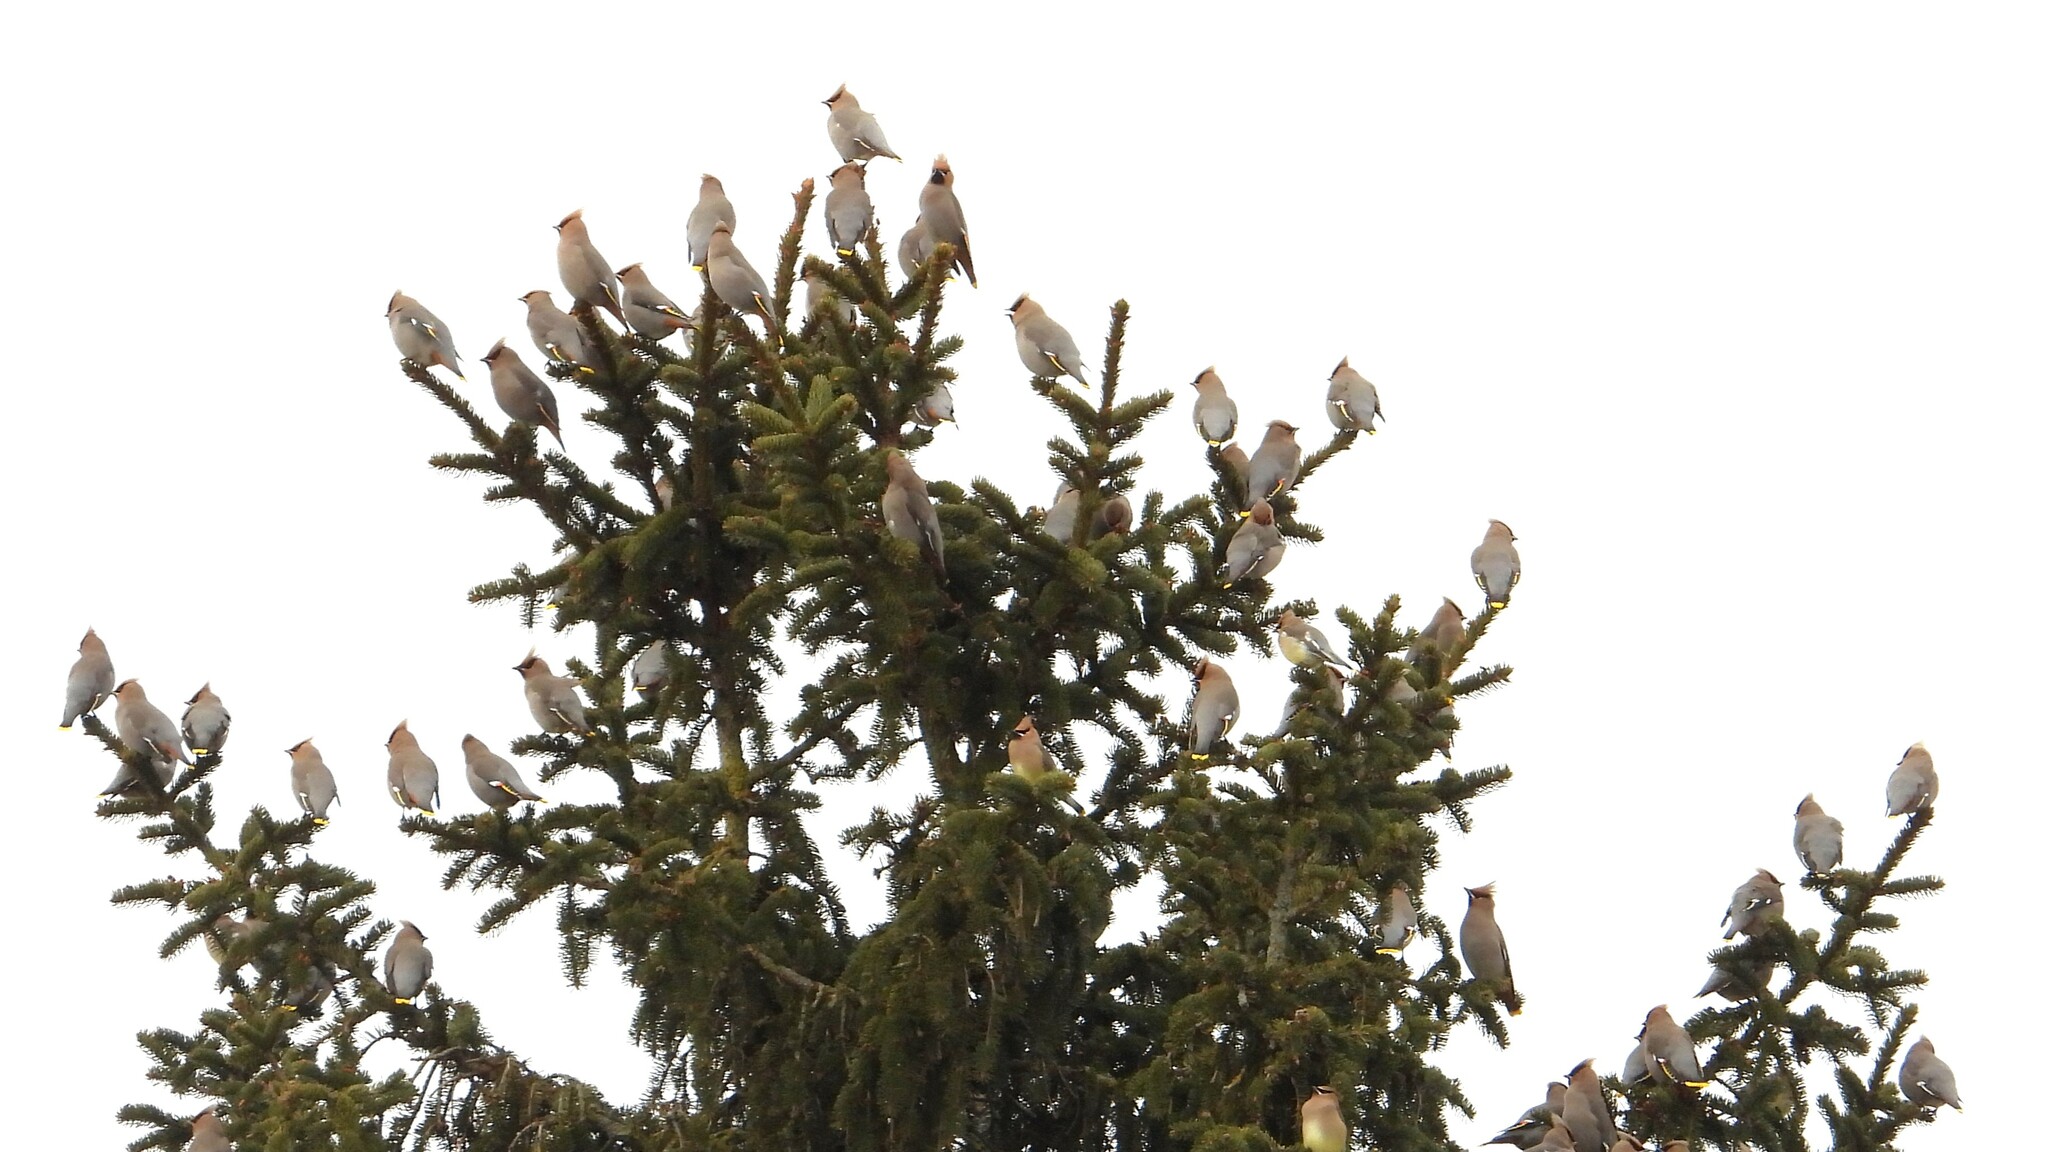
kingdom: Animalia
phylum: Chordata
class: Aves
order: Passeriformes
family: Bombycillidae
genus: Bombycilla
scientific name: Bombycilla garrulus
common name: Bohemian waxwing
